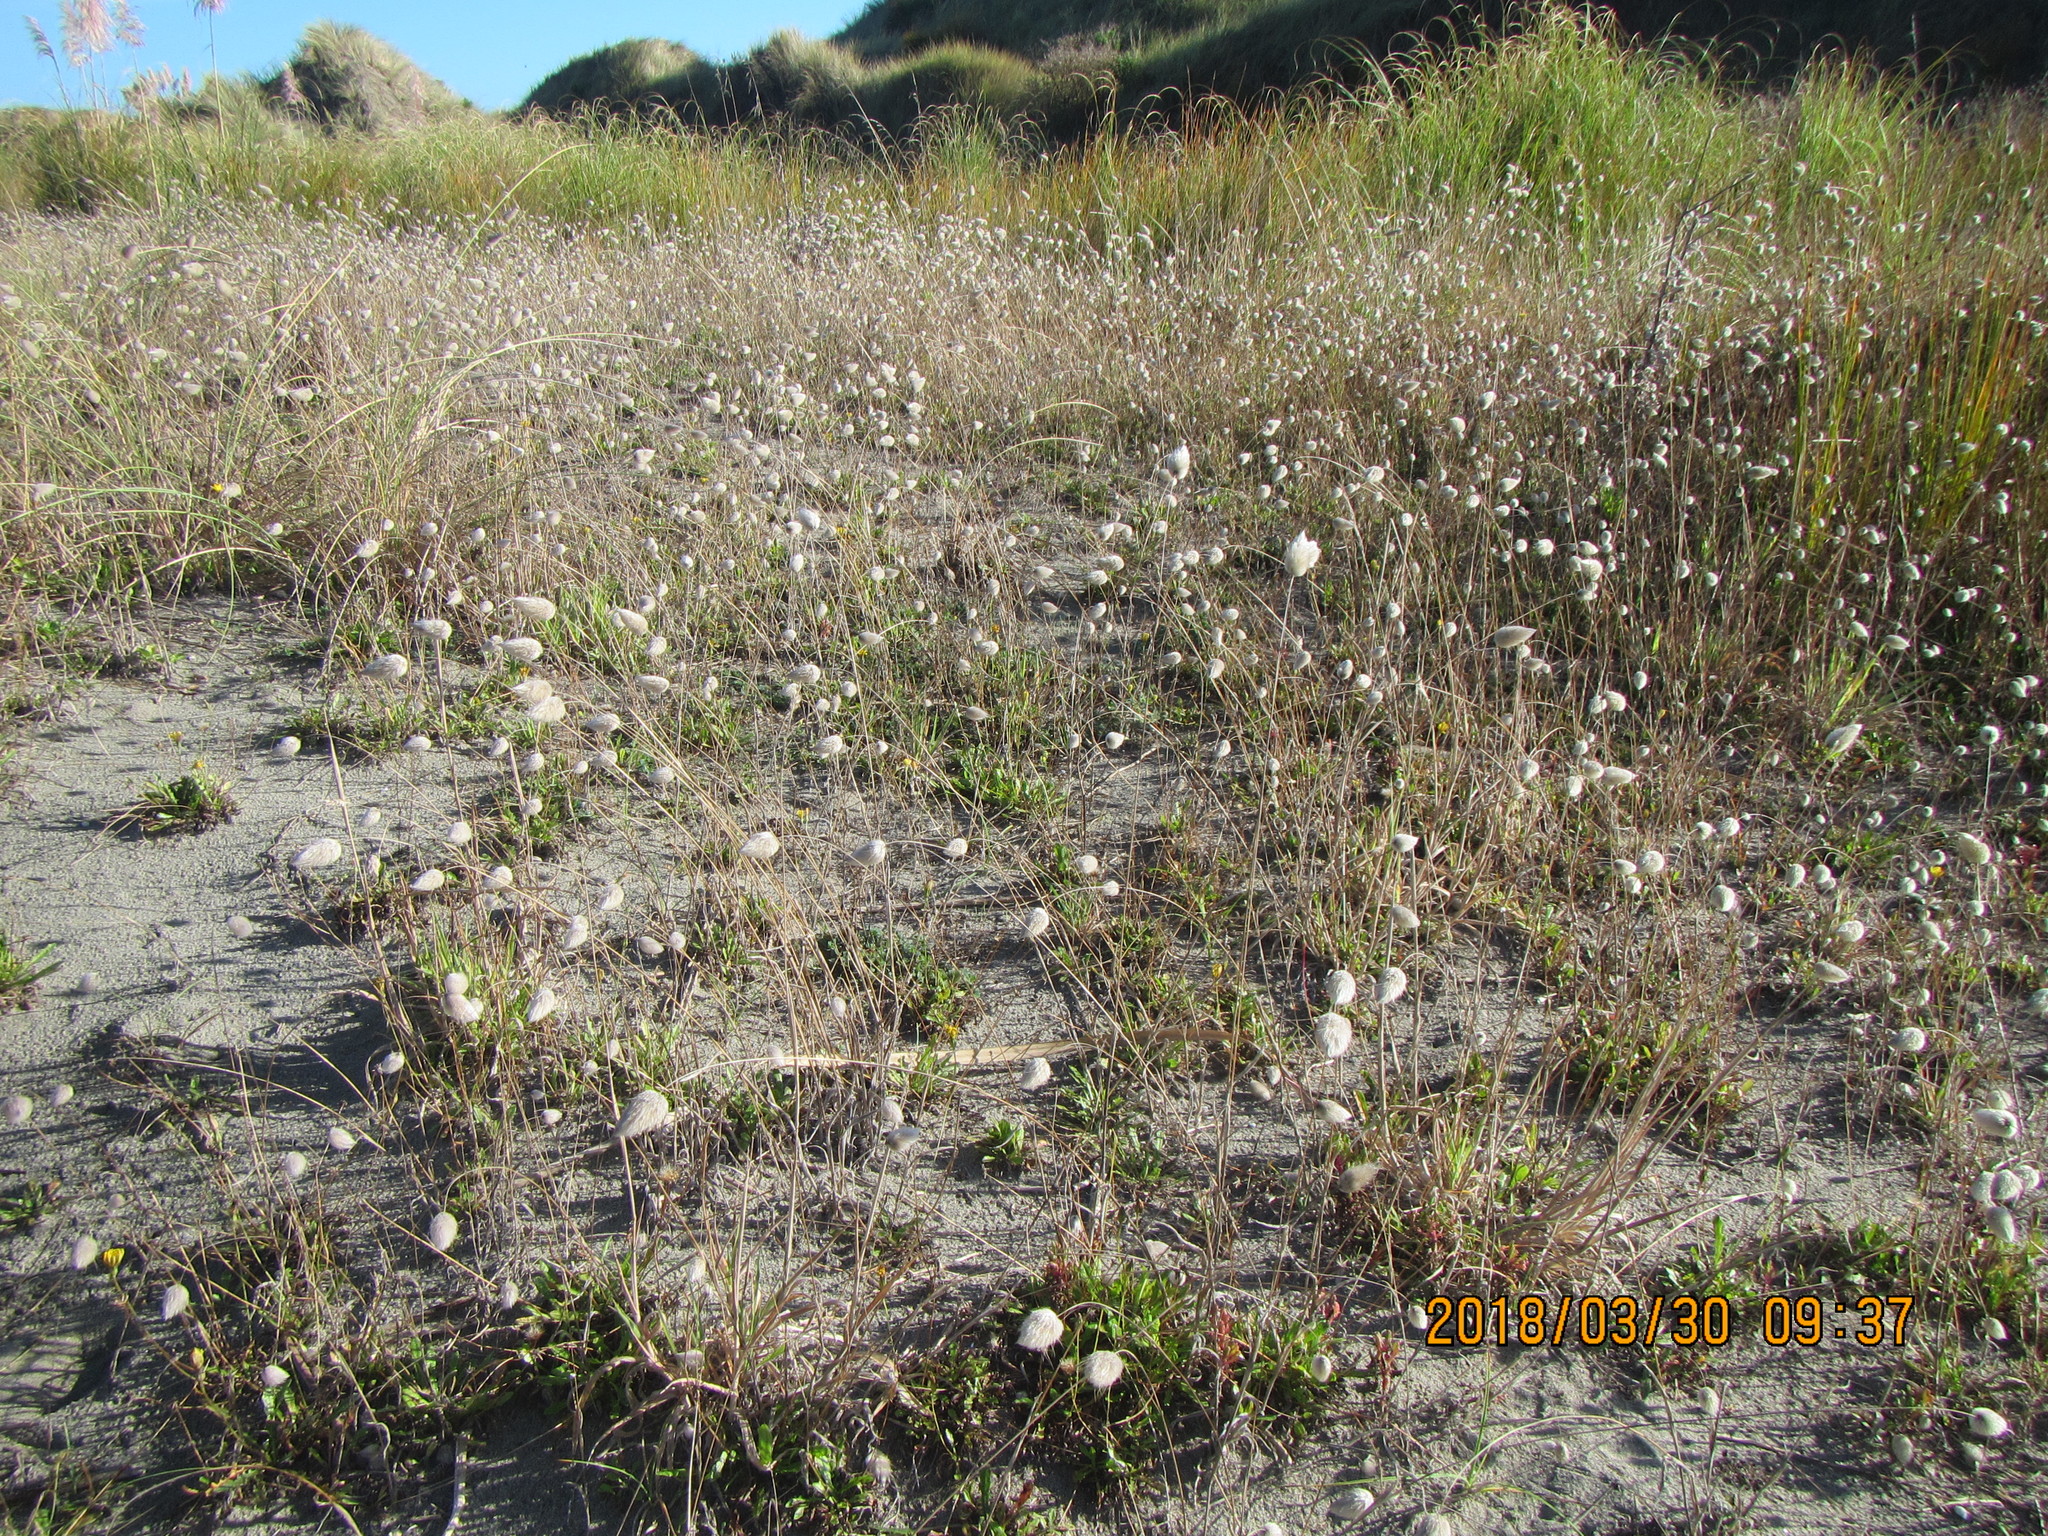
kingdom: Plantae
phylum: Tracheophyta
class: Liliopsida
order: Poales
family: Poaceae
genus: Lagurus
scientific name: Lagurus ovatus
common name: Hare's-tail
